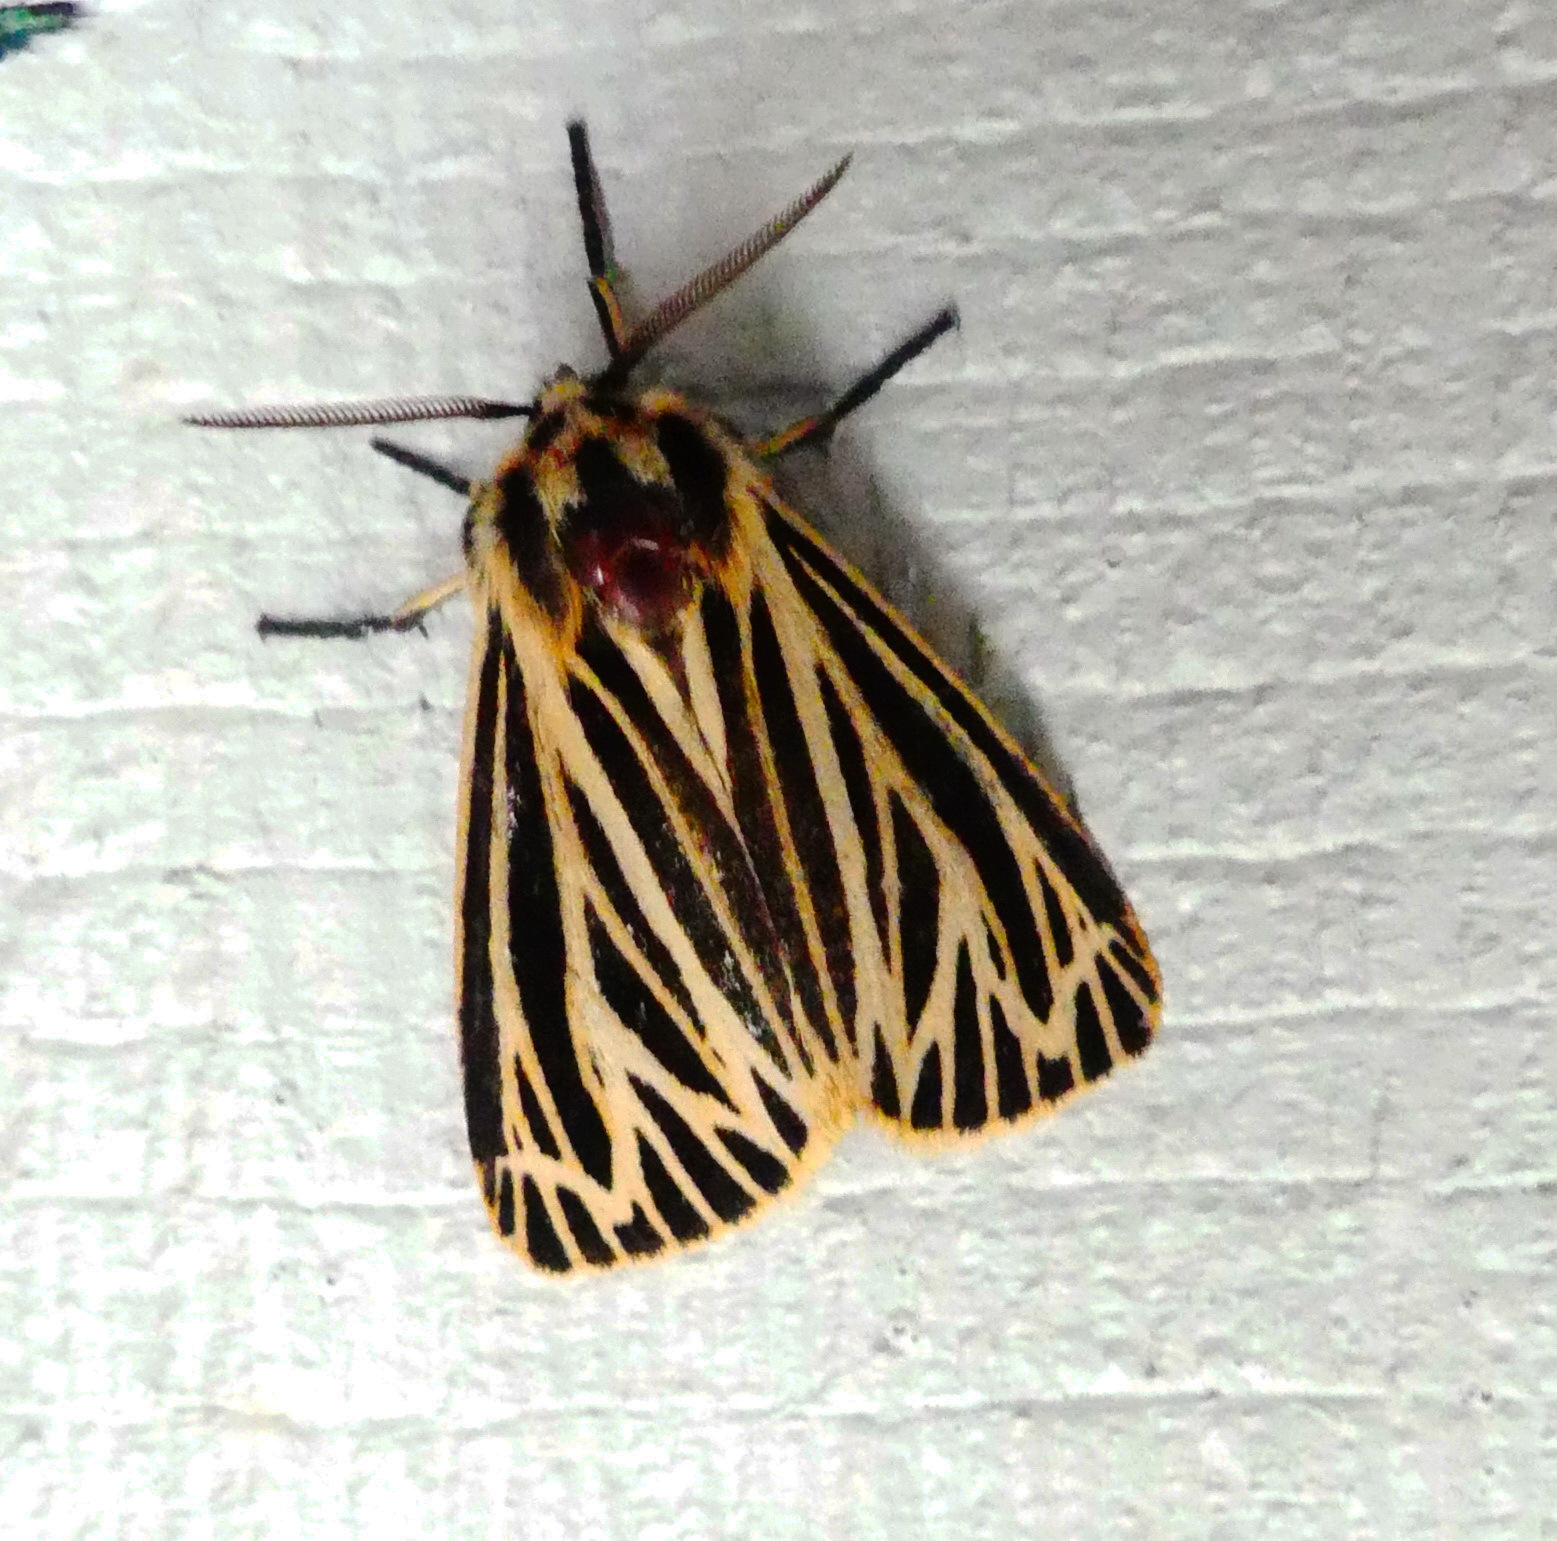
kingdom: Animalia
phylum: Arthropoda
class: Insecta
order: Lepidoptera
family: Erebidae
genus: Grammia
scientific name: Grammia virguncula
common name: Little tiger moth
